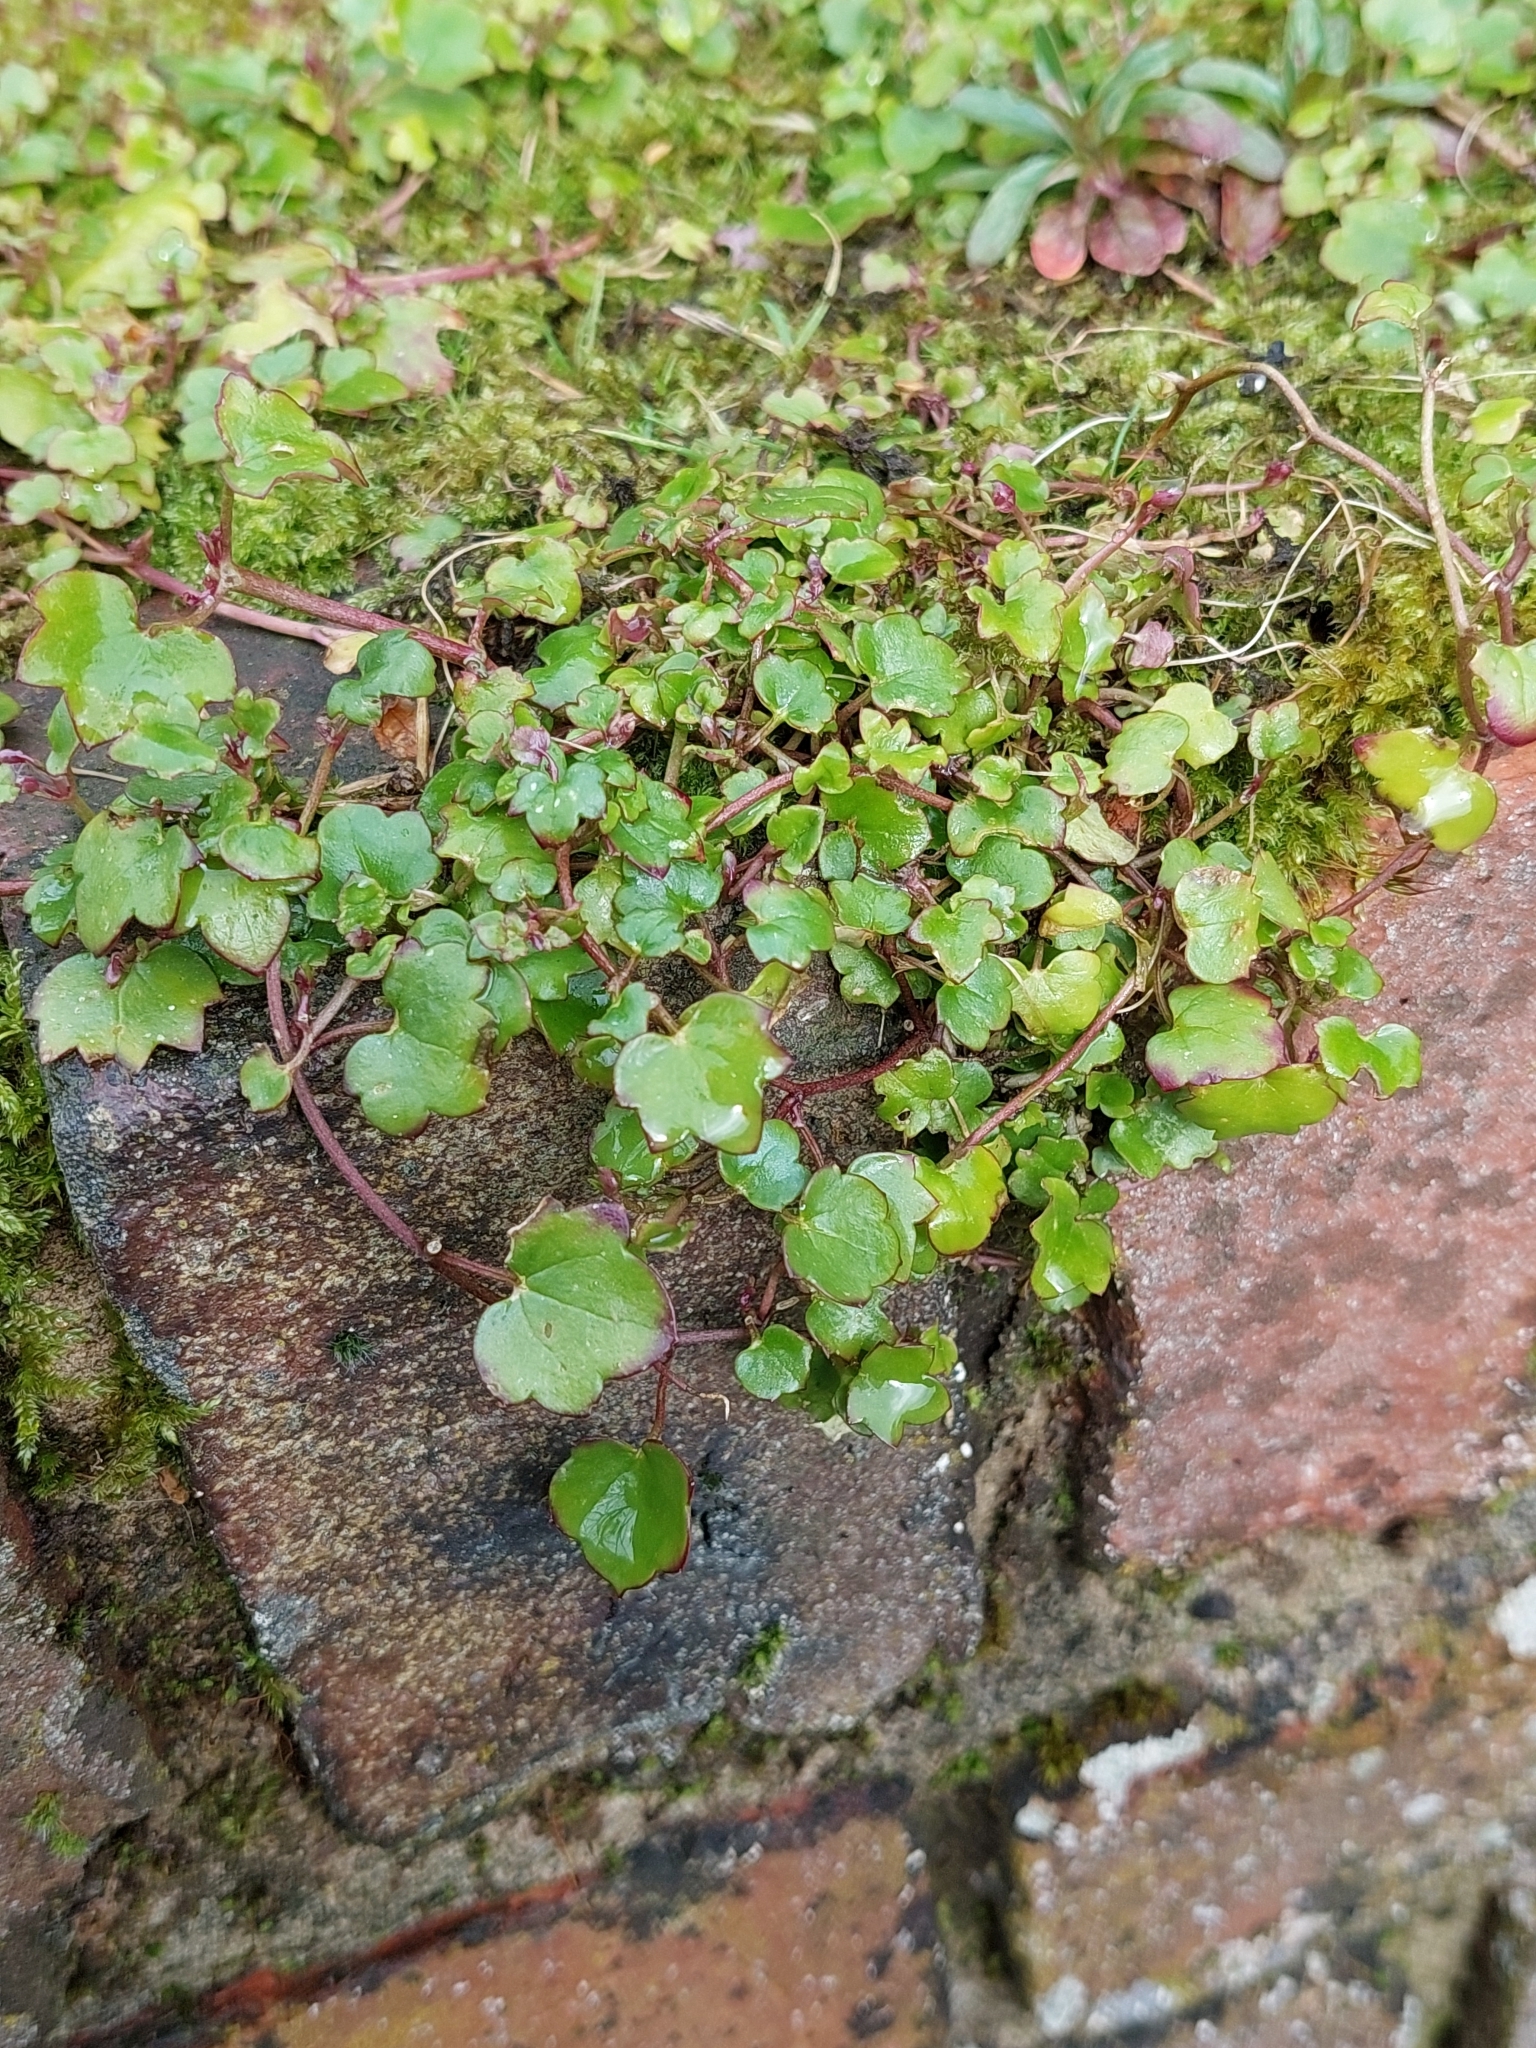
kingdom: Plantae
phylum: Tracheophyta
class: Magnoliopsida
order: Lamiales
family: Plantaginaceae
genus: Cymbalaria
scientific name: Cymbalaria muralis
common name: Ivy-leaved toadflax
